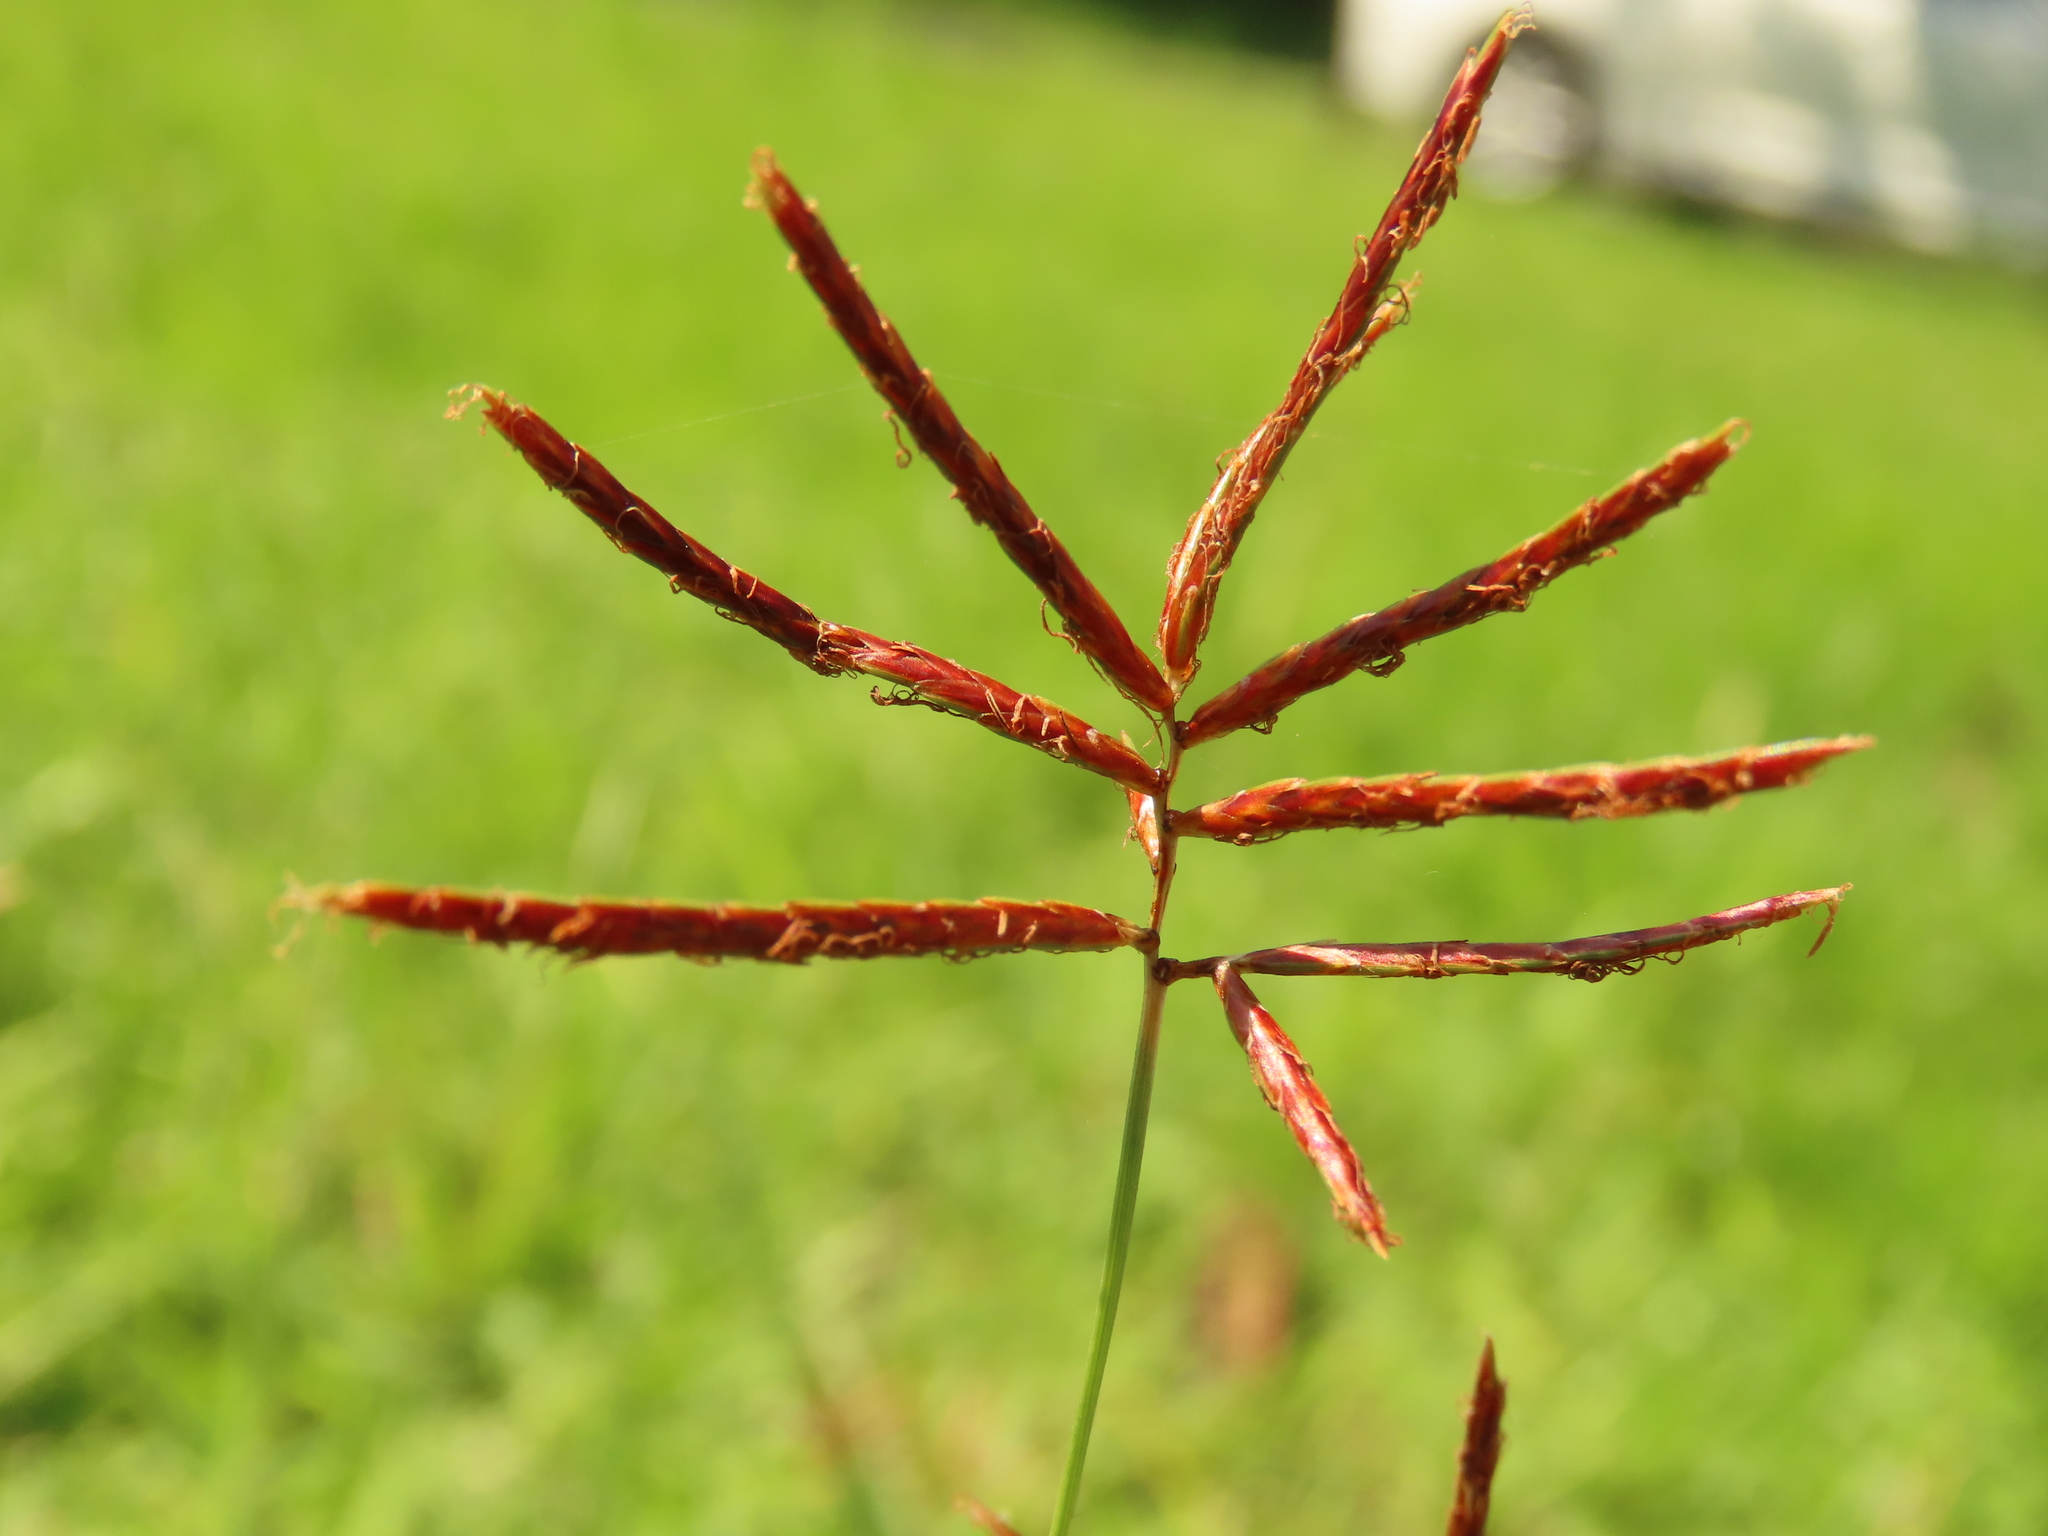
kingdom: Plantae
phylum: Tracheophyta
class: Liliopsida
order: Poales
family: Cyperaceae
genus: Cyperus
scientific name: Cyperus rotundus
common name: Nutgrass
